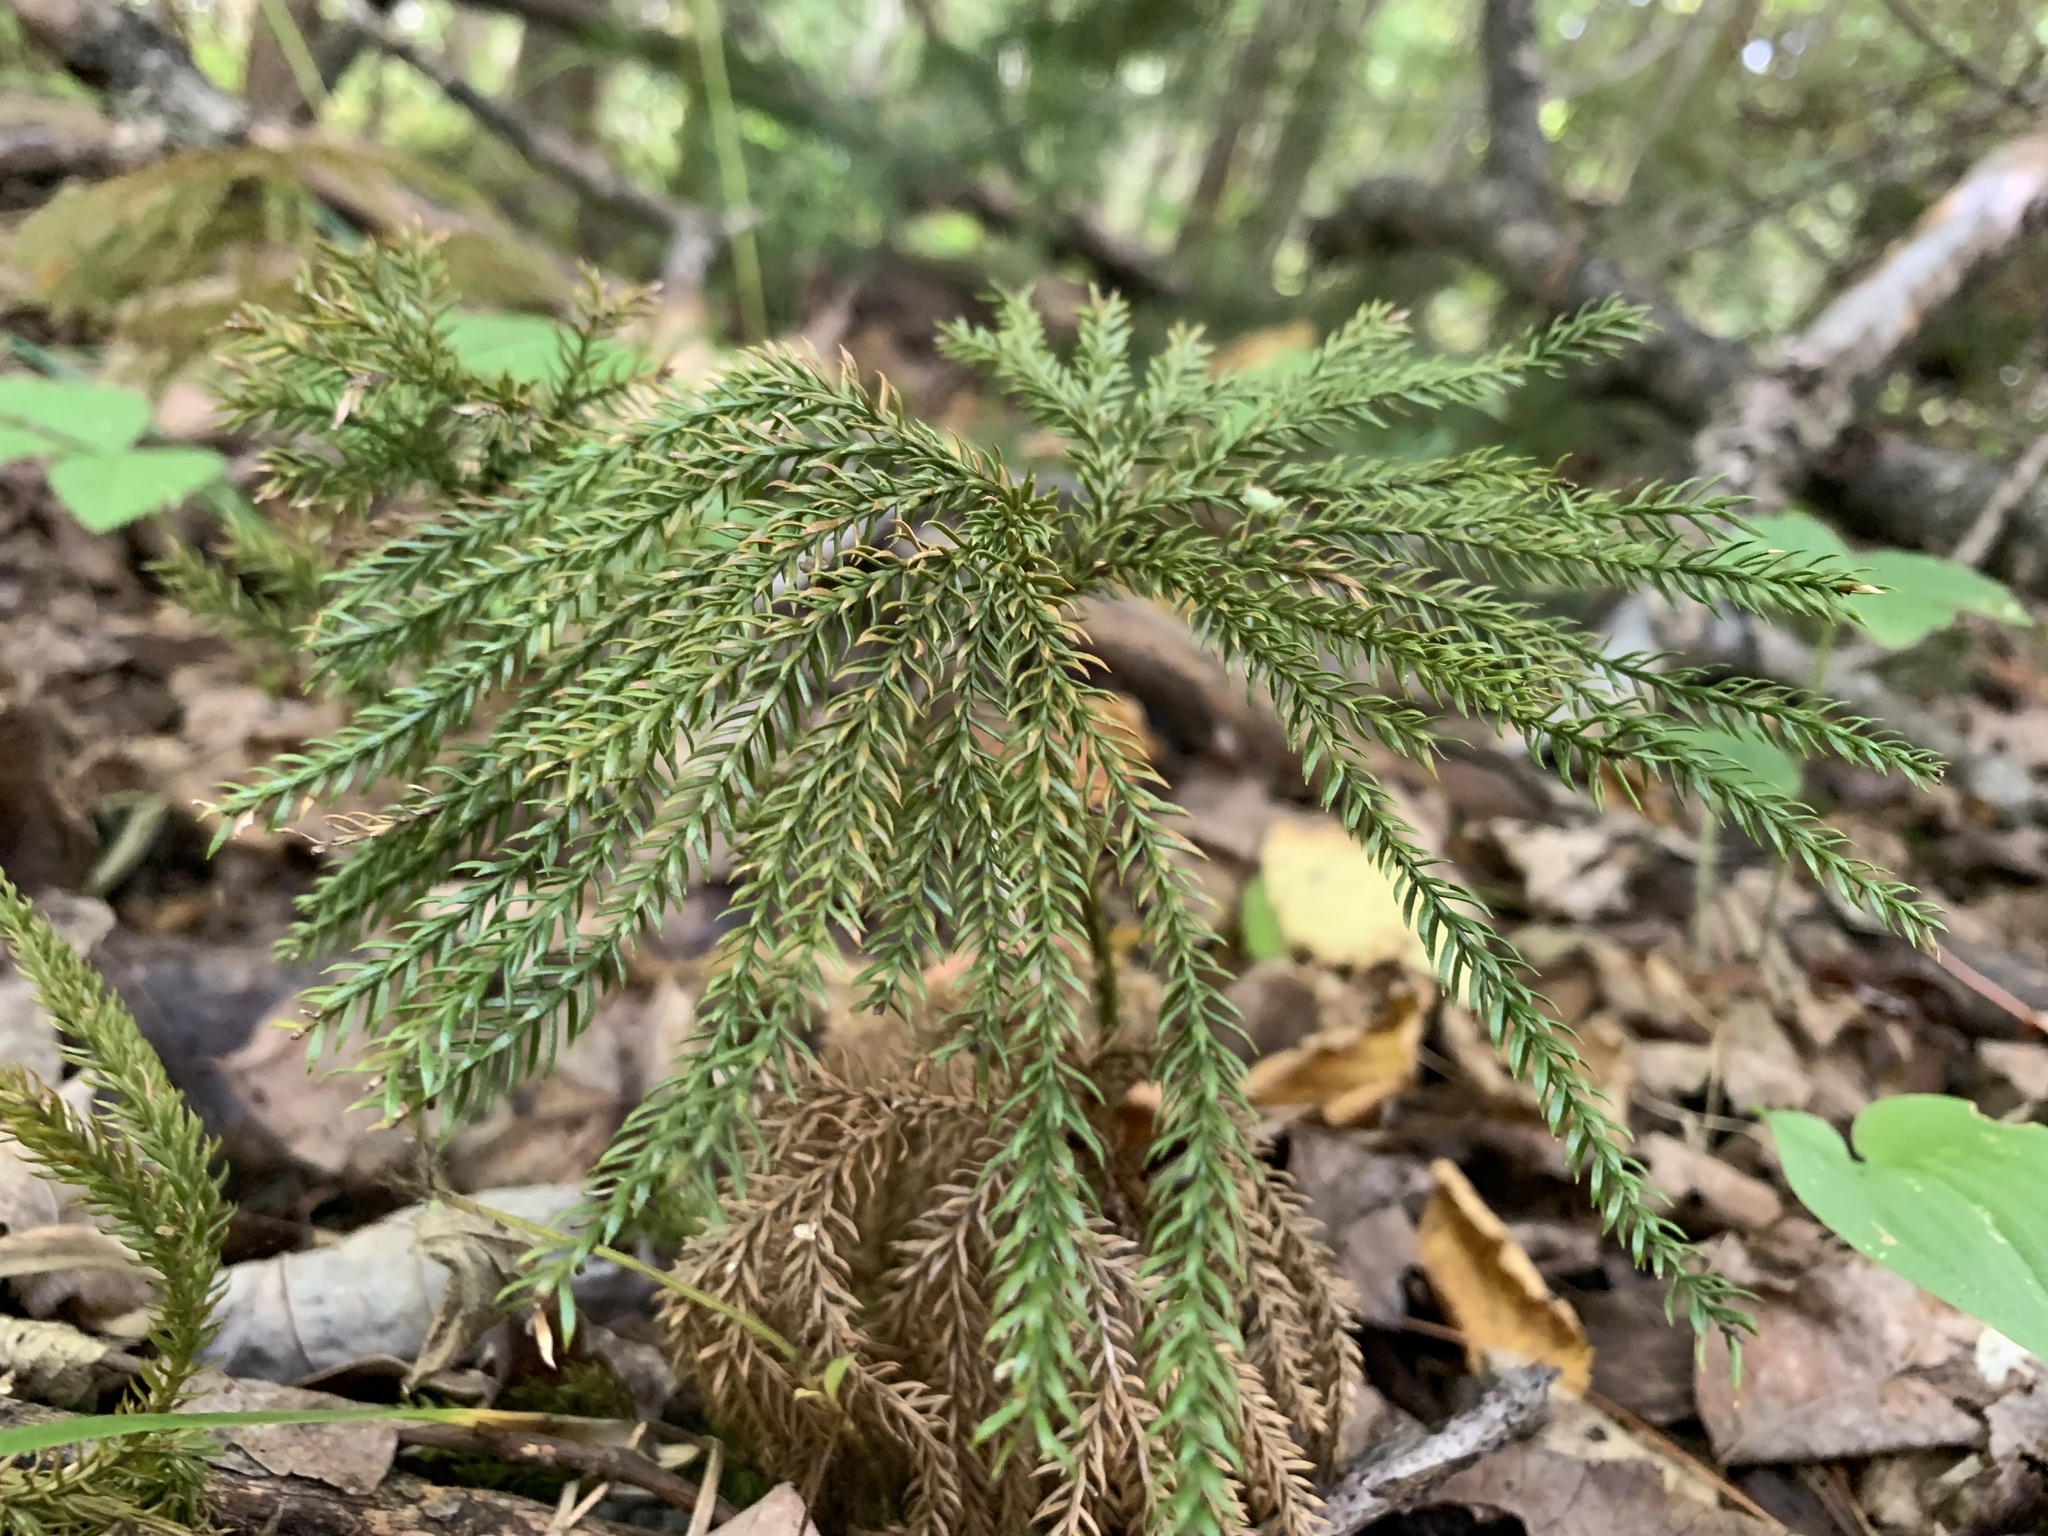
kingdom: Plantae
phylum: Tracheophyta
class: Lycopodiopsida
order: Lycopodiales
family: Lycopodiaceae
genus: Dendrolycopodium
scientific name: Dendrolycopodium dendroideum
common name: Northern tree-clubmoss
